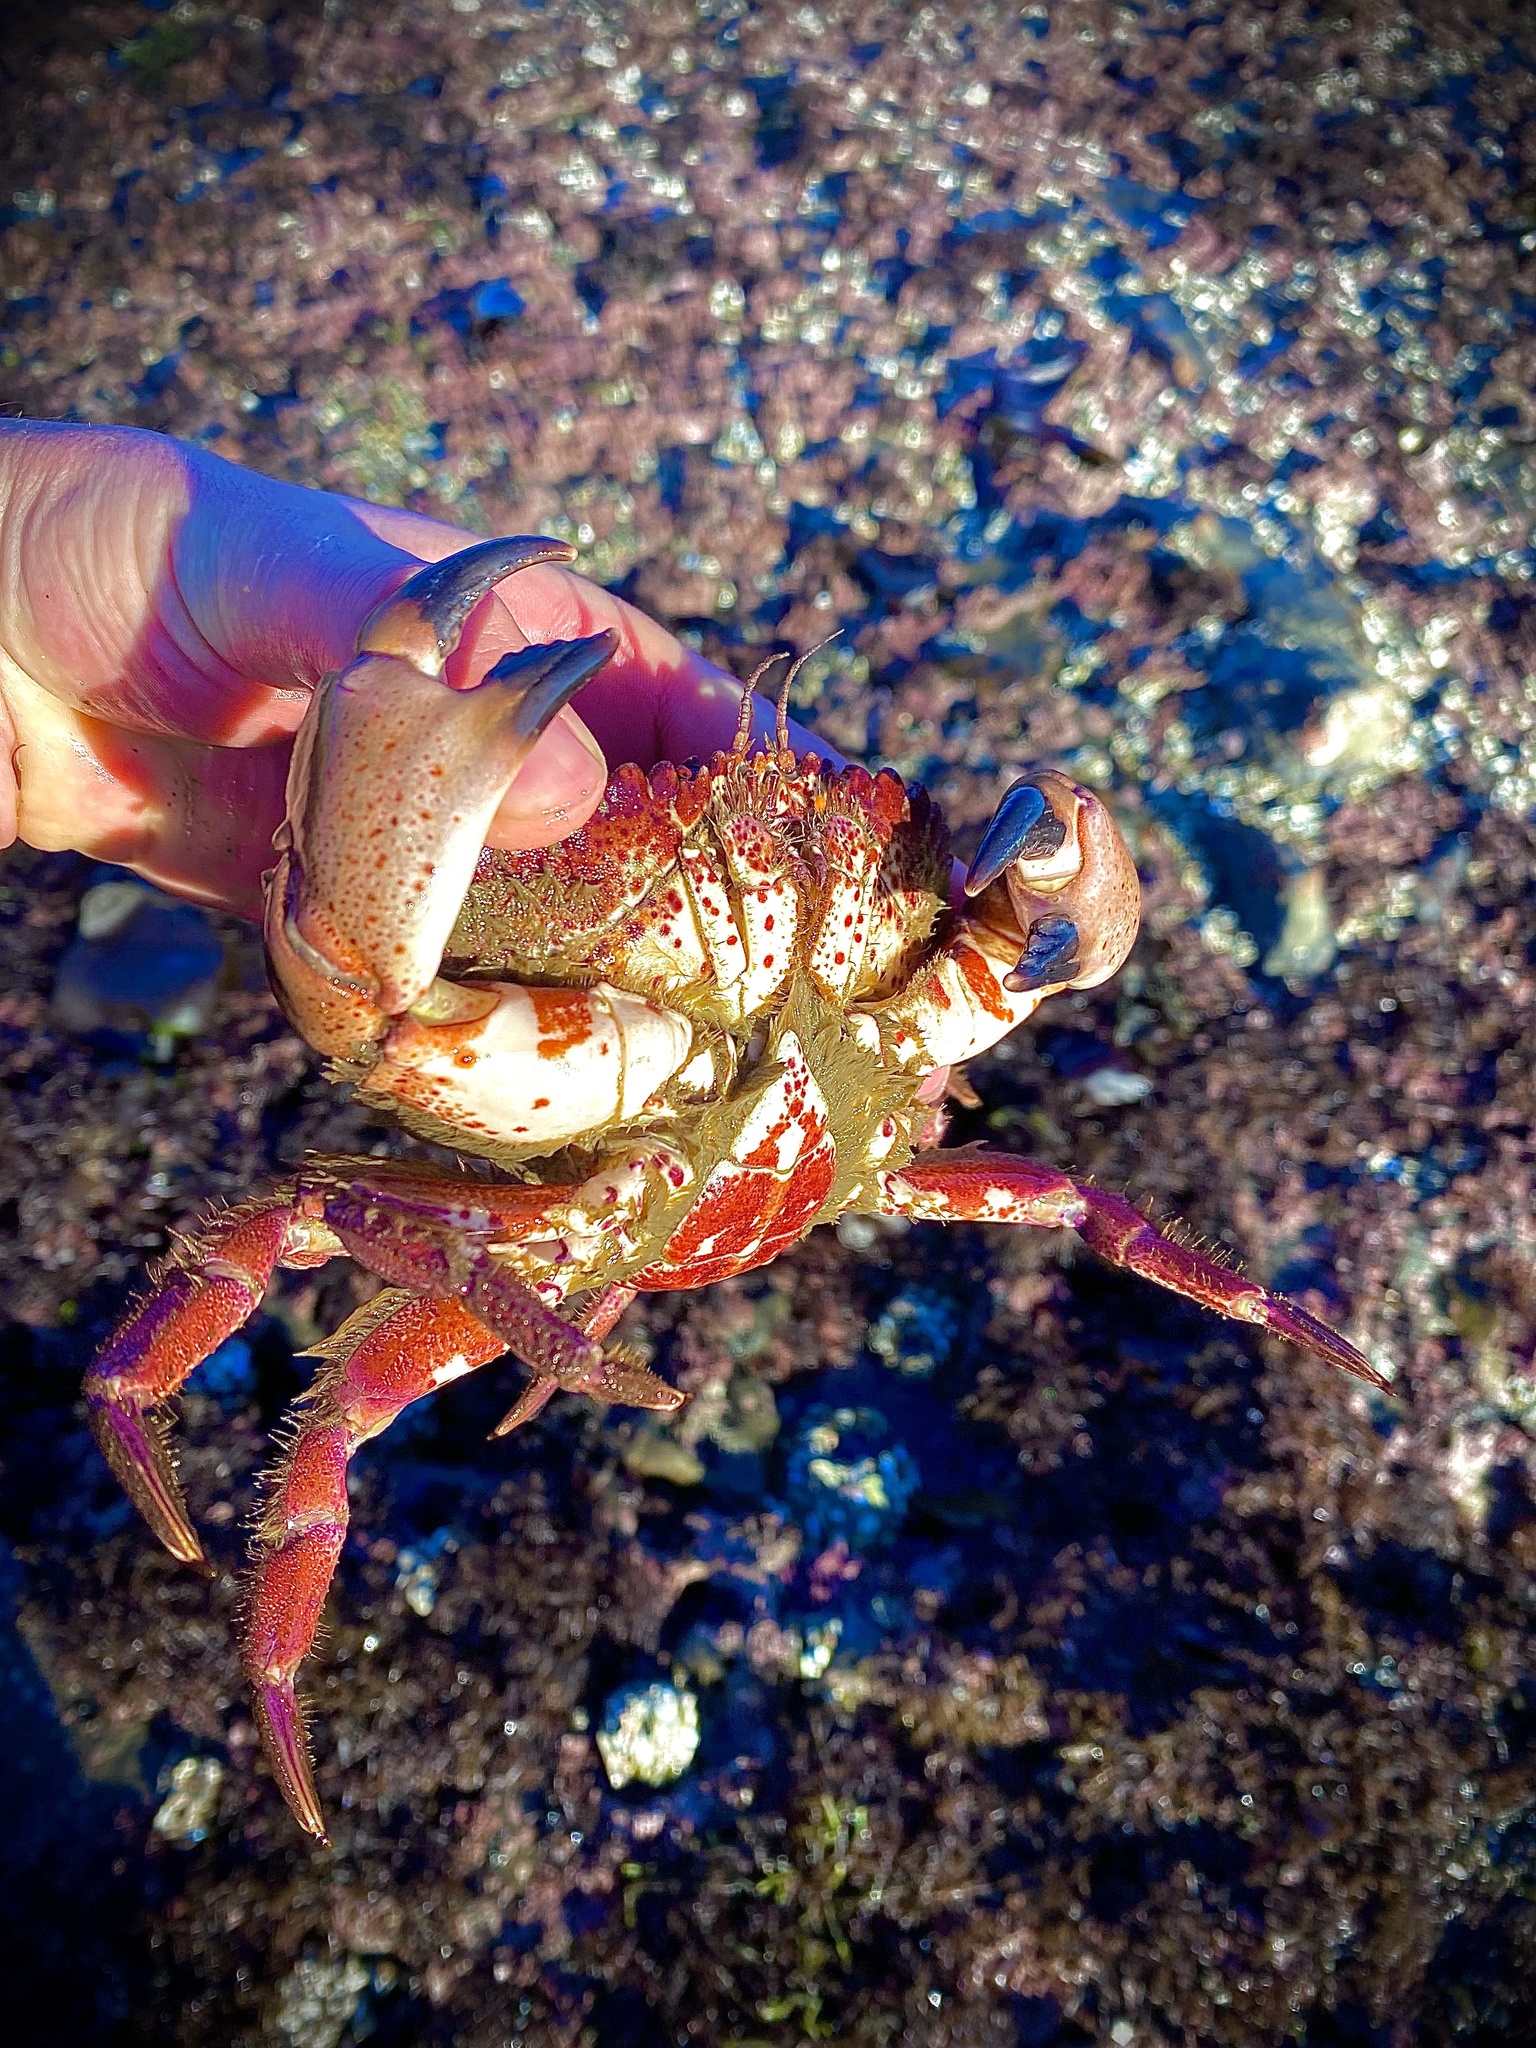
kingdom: Animalia
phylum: Arthropoda
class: Malacostraca
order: Decapoda
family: Cancridae
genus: Romaleon
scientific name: Romaleon antennarium
